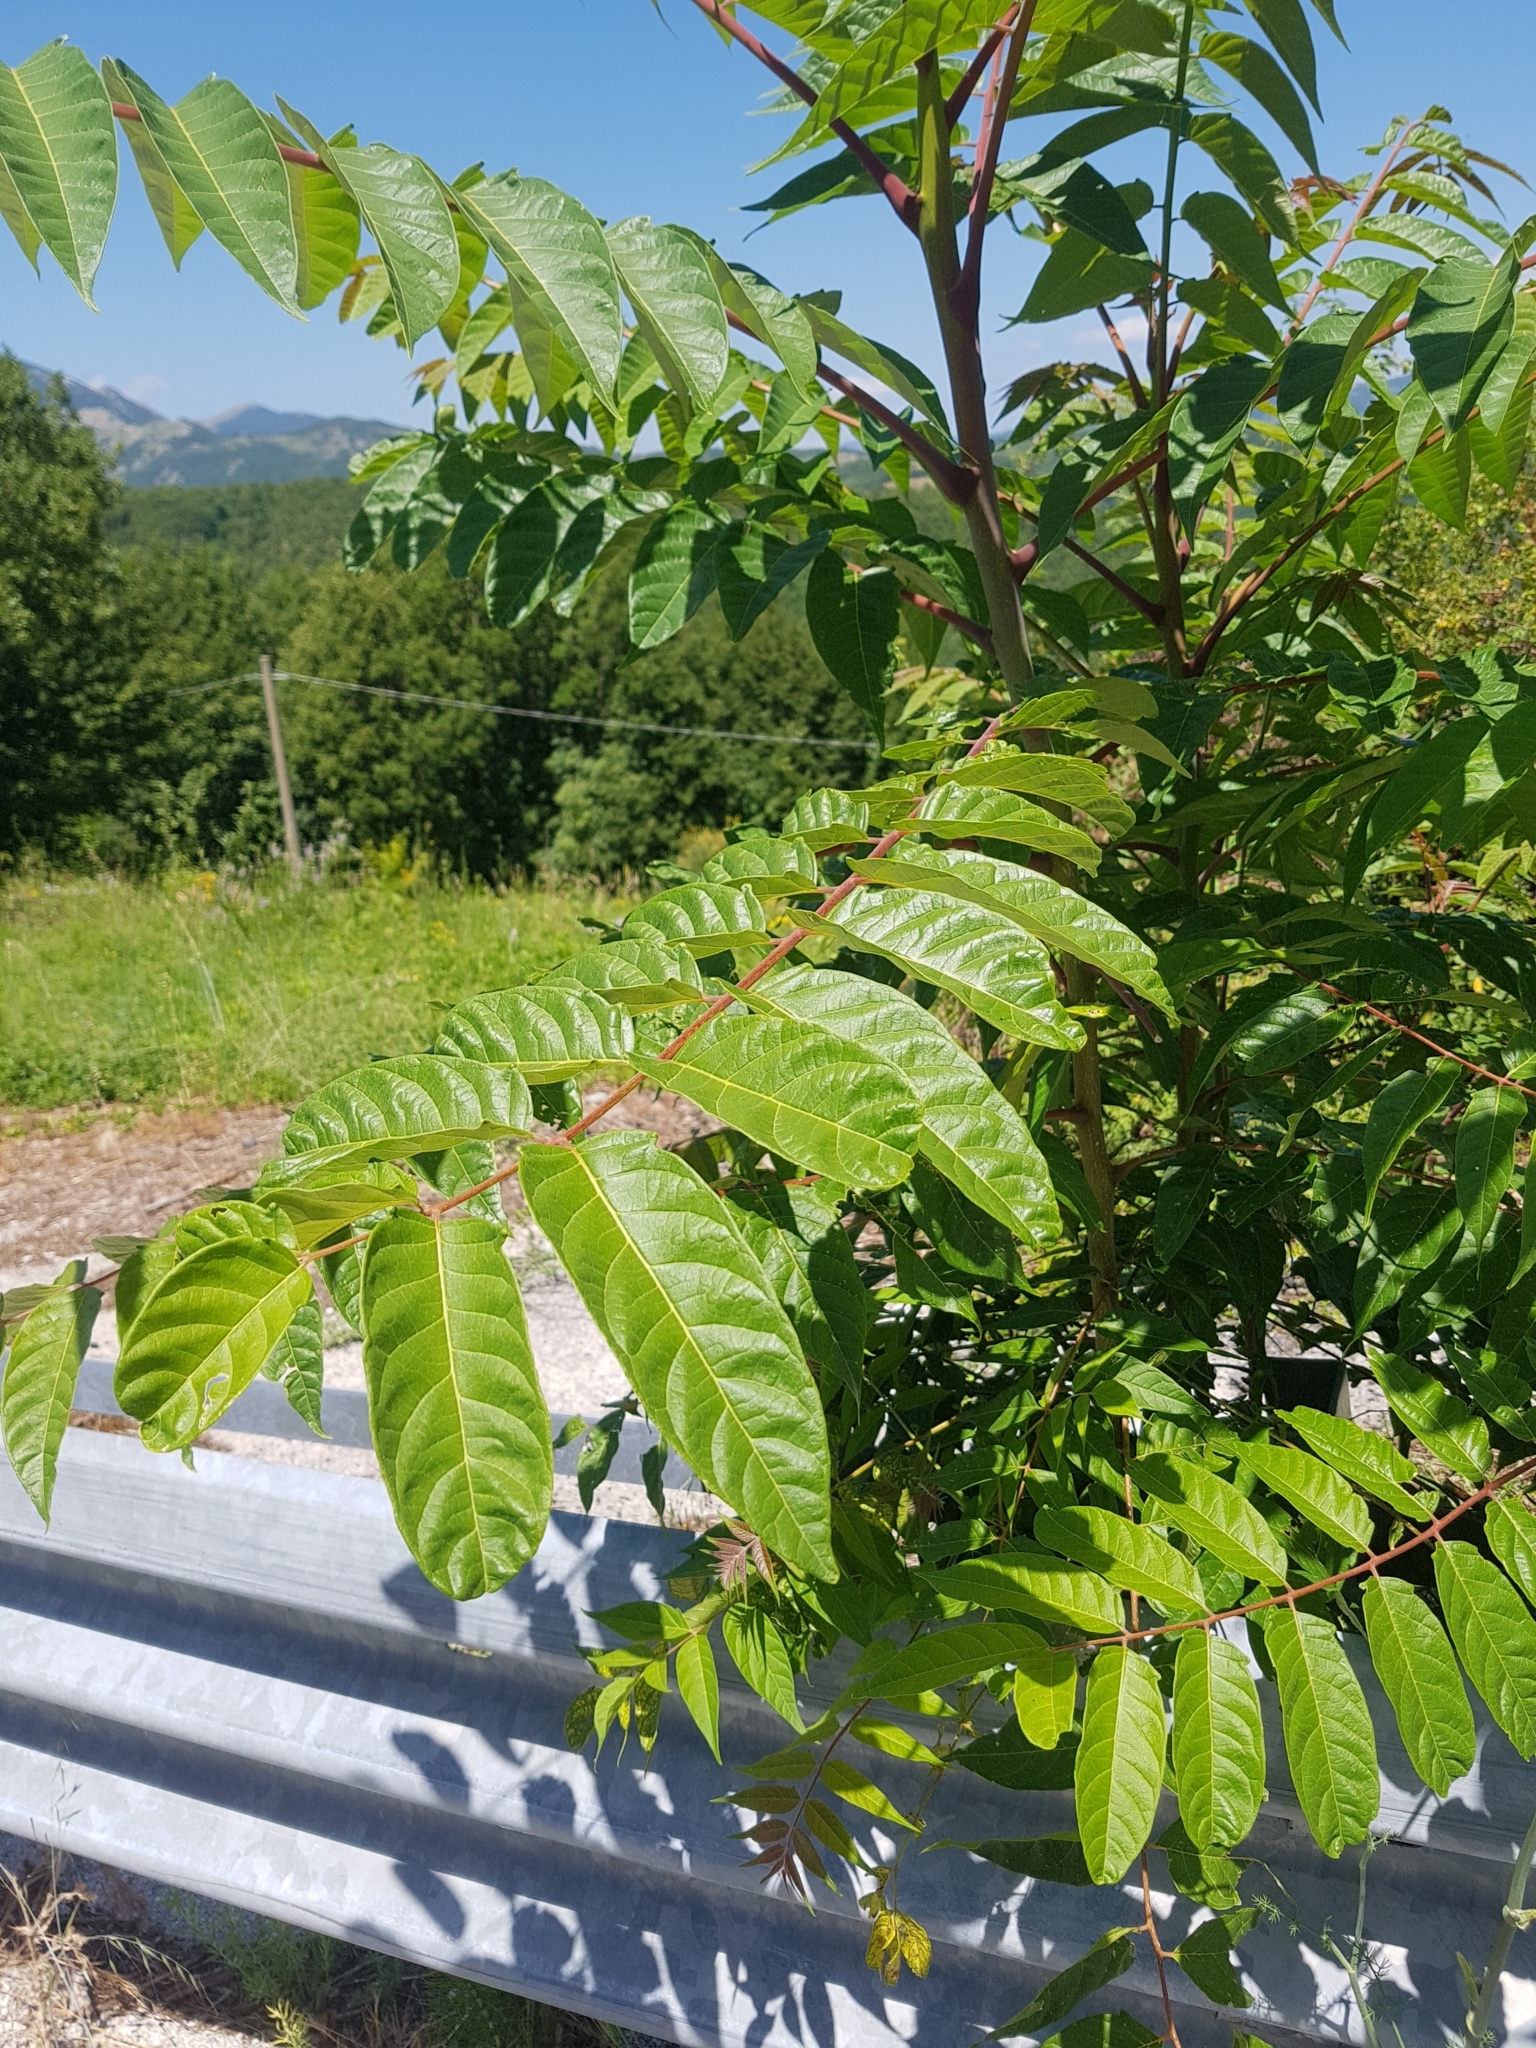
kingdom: Plantae
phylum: Tracheophyta
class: Magnoliopsida
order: Sapindales
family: Simaroubaceae
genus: Ailanthus
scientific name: Ailanthus altissima
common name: Tree-of-heaven
